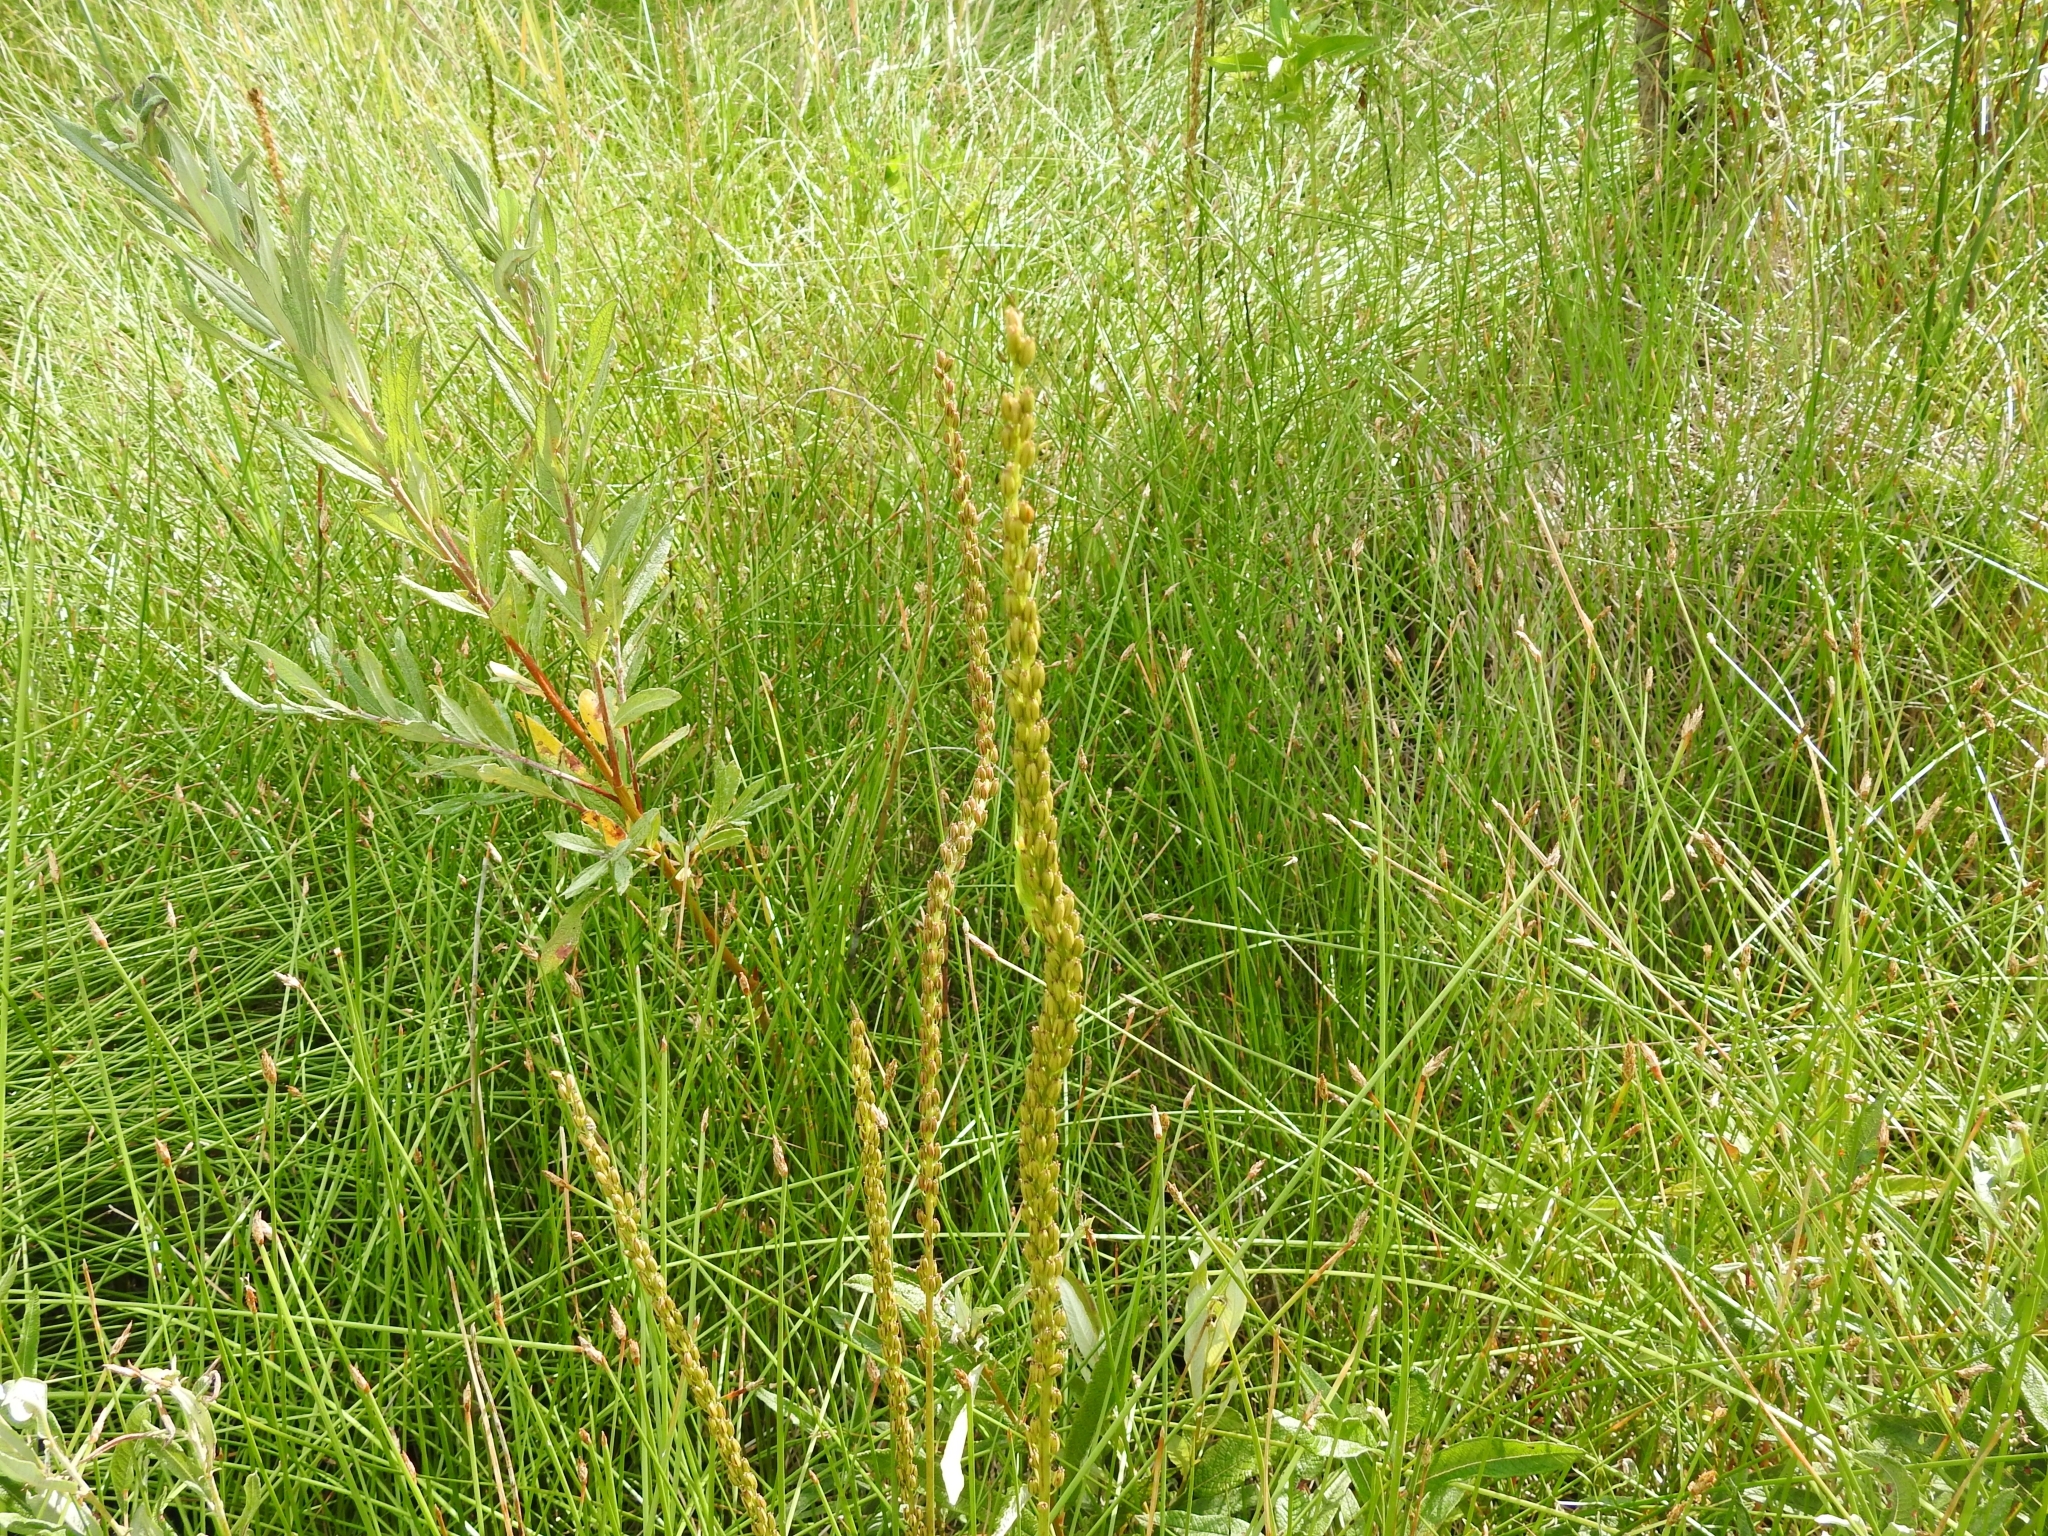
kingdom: Plantae
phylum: Tracheophyta
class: Liliopsida
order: Alismatales
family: Juncaginaceae
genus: Triglochin
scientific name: Triglochin maritima
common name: Sea arrowgrass
